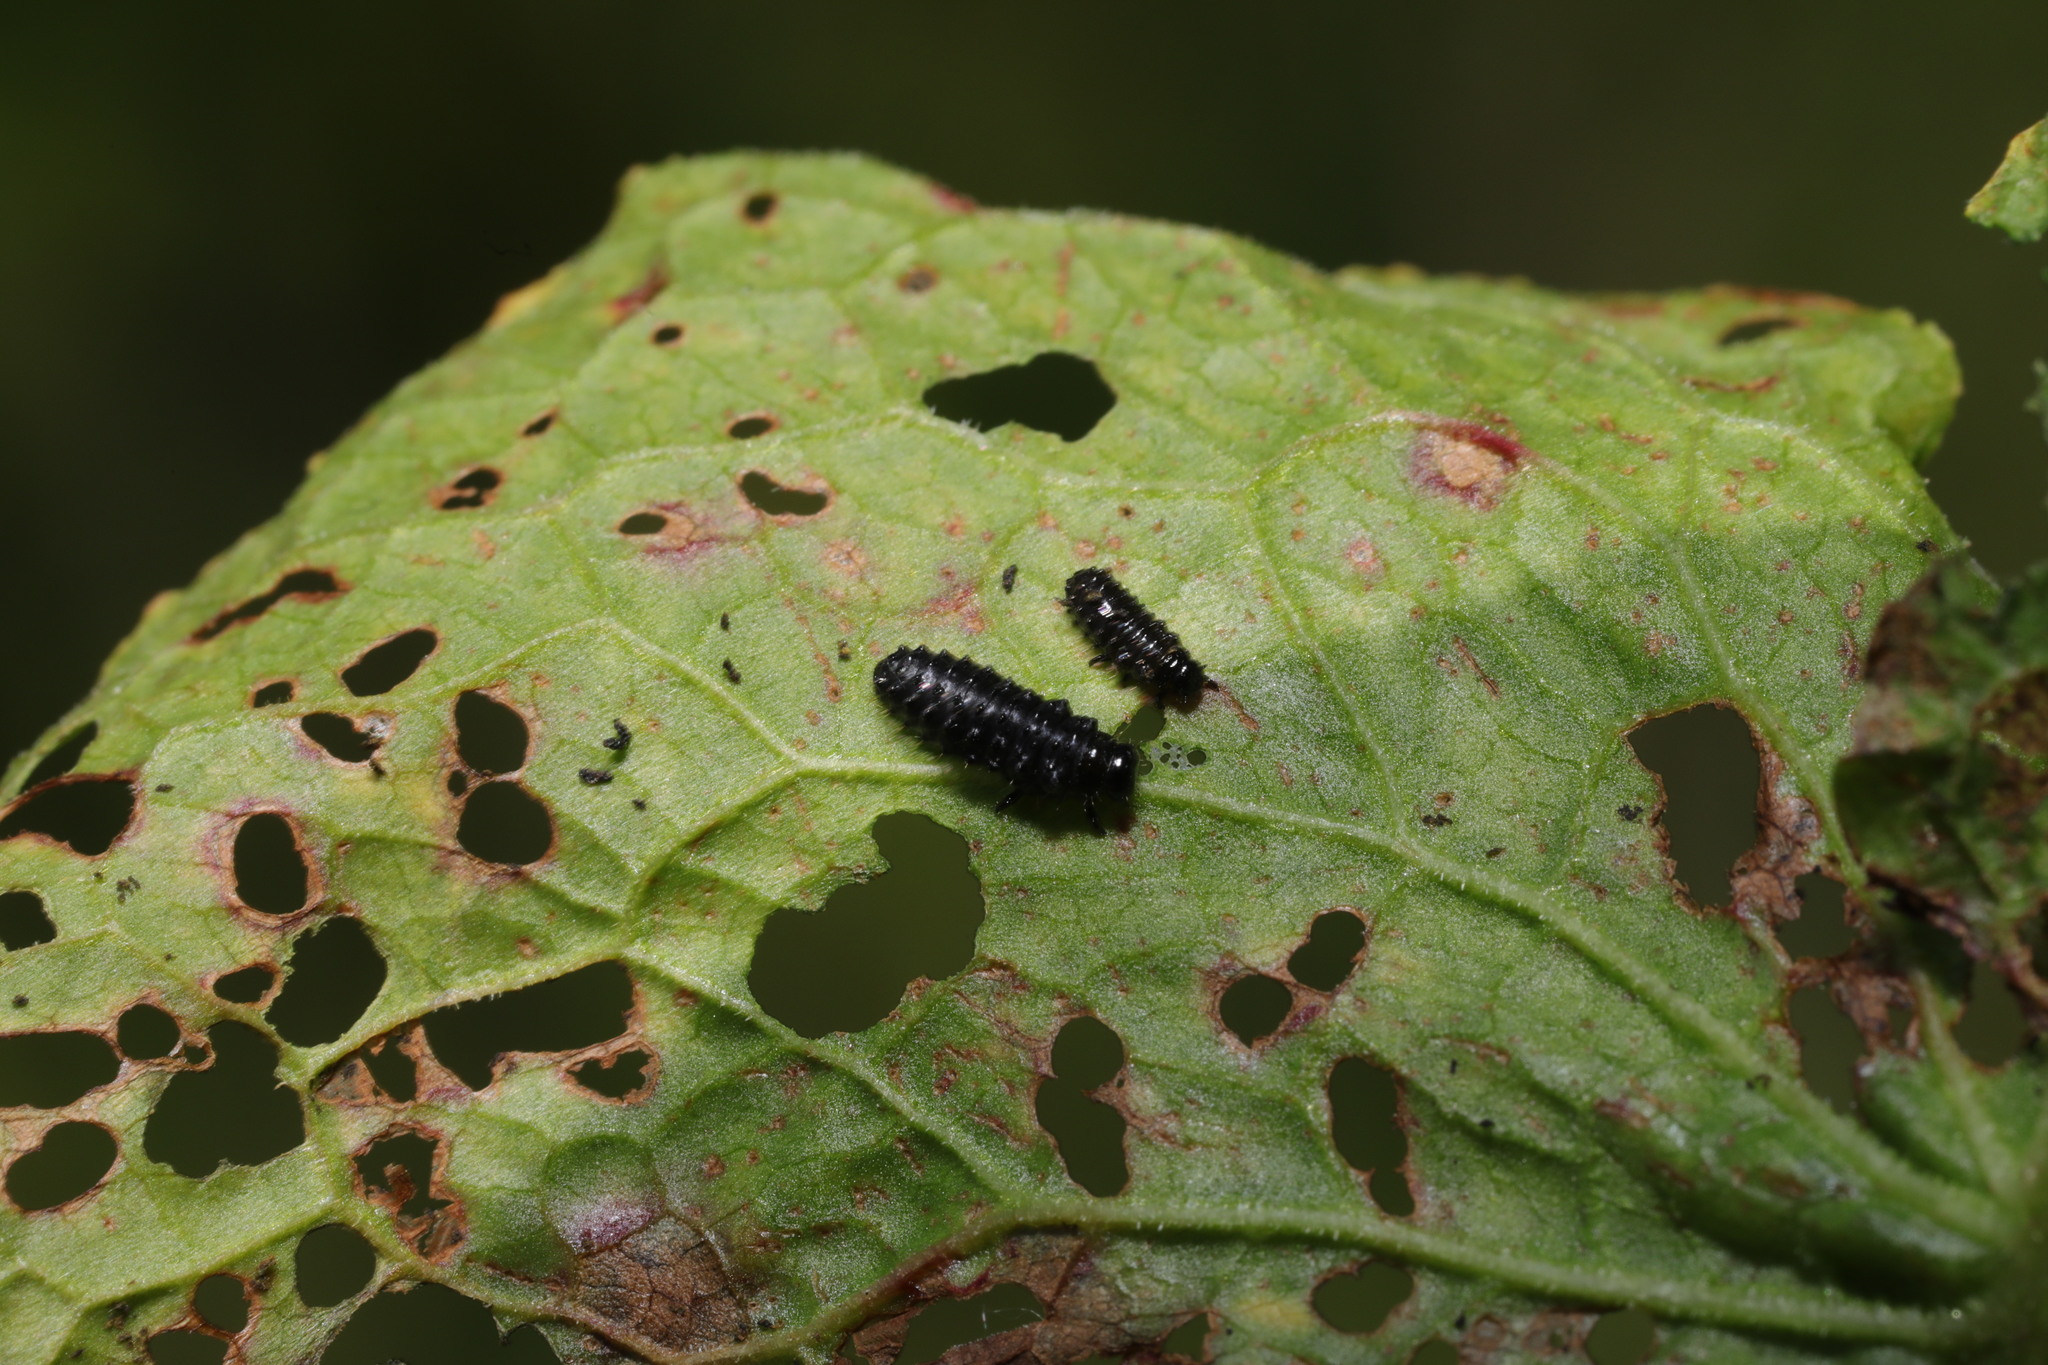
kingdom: Animalia
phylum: Arthropoda
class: Insecta
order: Coleoptera
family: Chrysomelidae
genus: Agelastica
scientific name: Agelastica alni
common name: Alder leaf beetle
